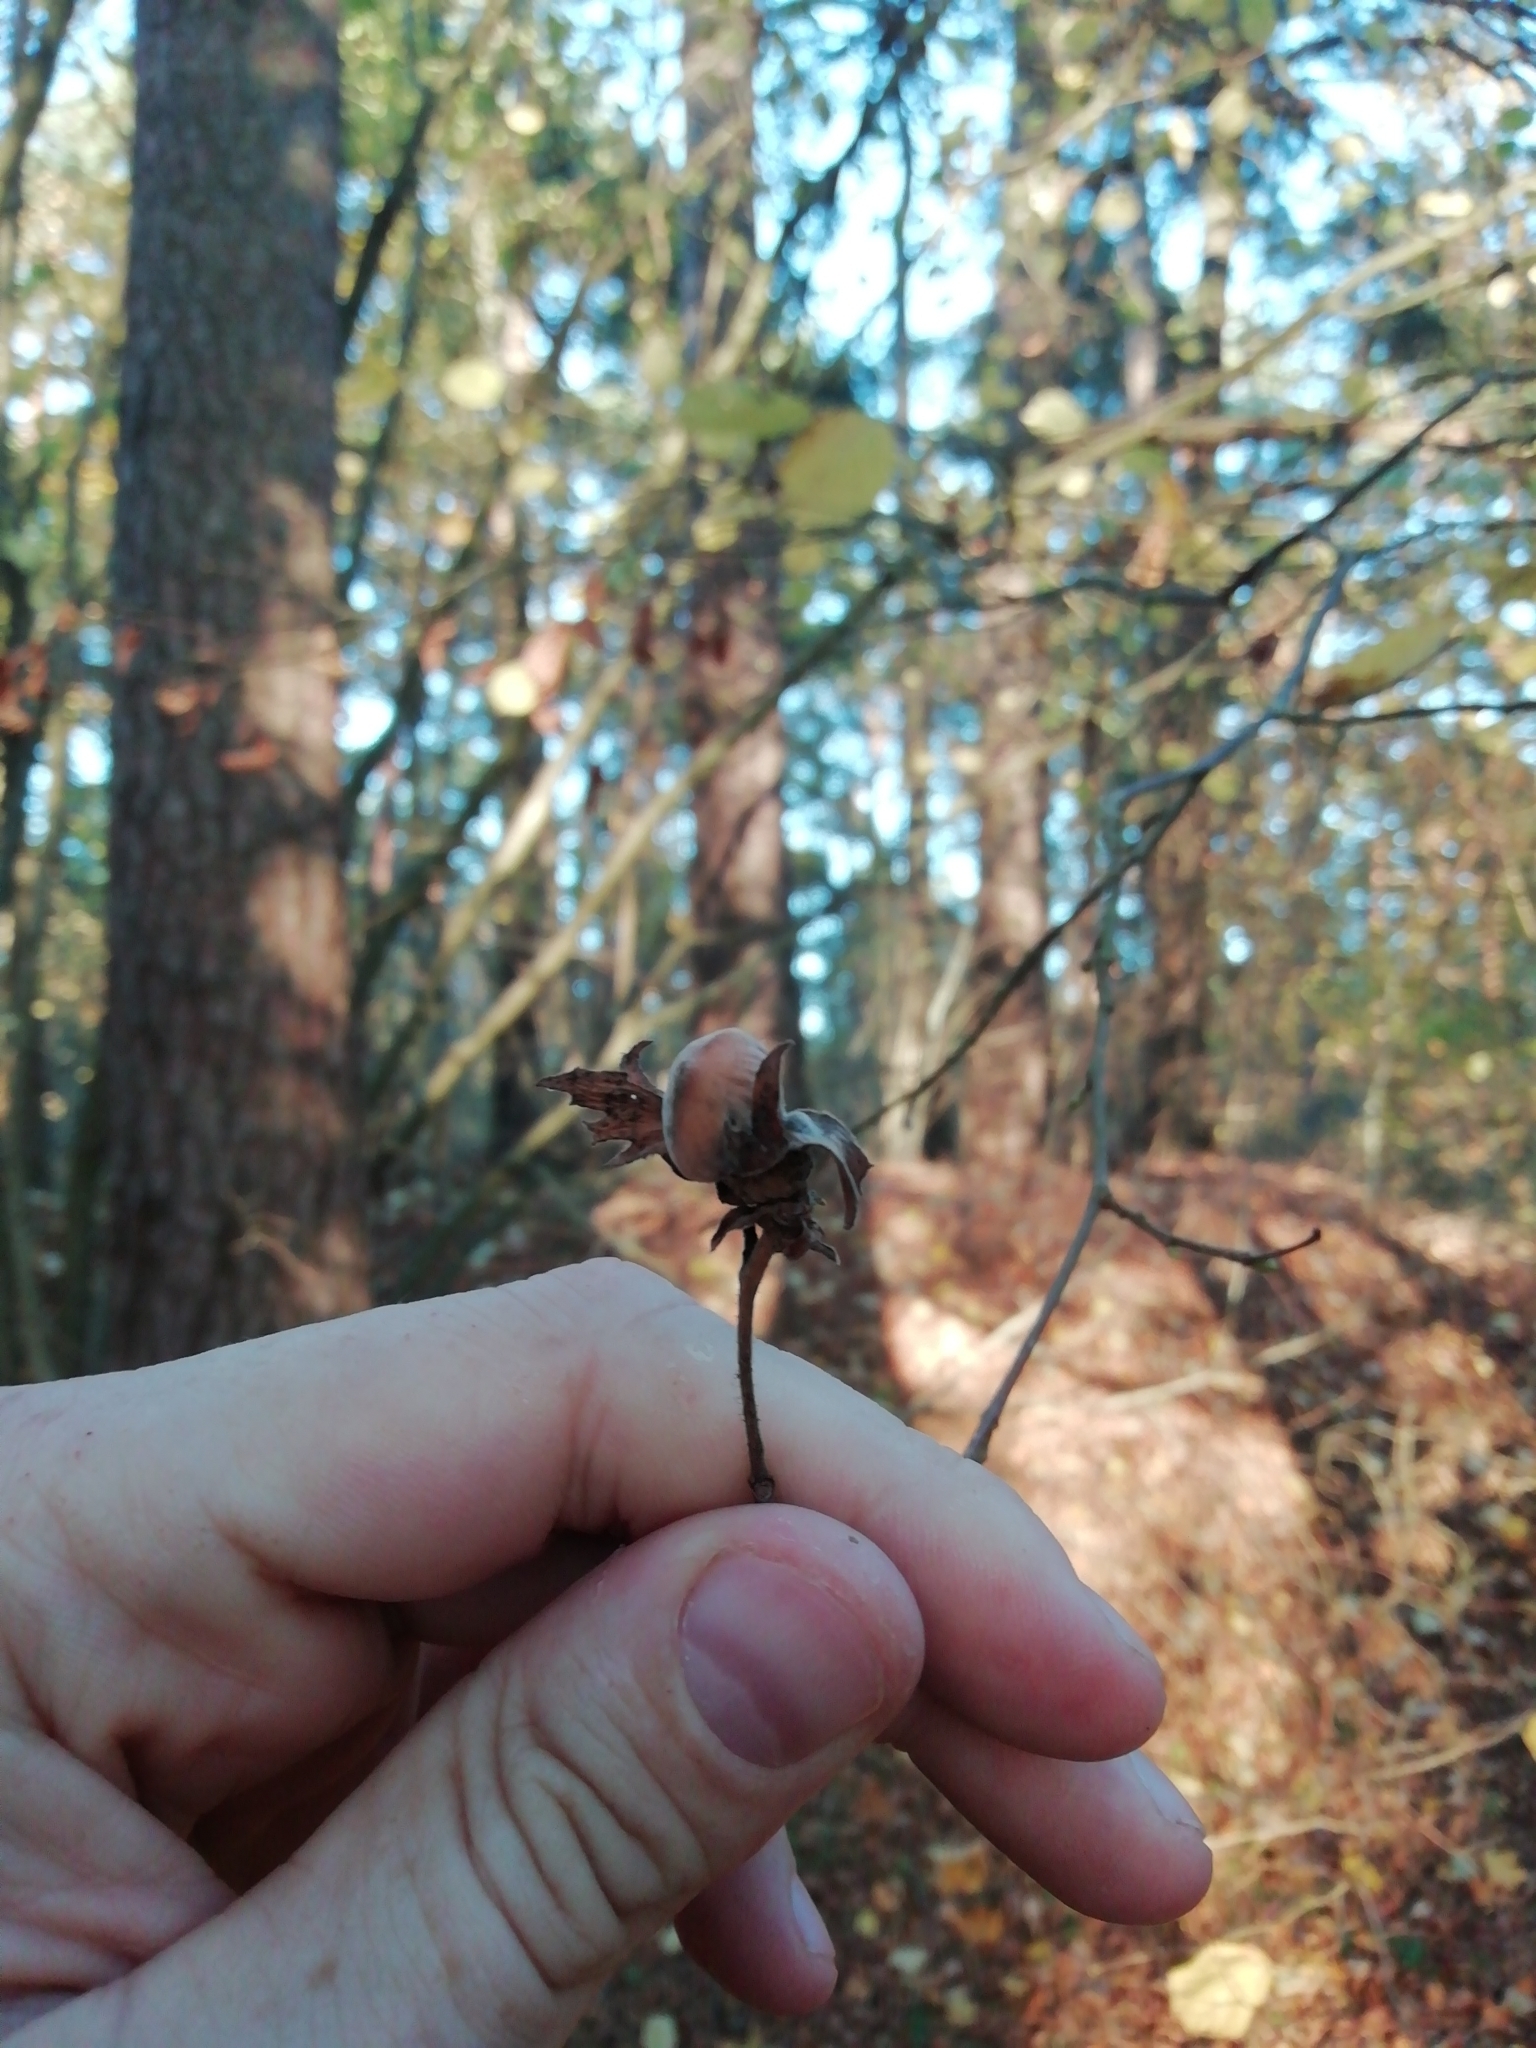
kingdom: Plantae
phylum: Tracheophyta
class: Magnoliopsida
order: Fagales
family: Betulaceae
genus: Corylus
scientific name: Corylus avellana
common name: European hazel
